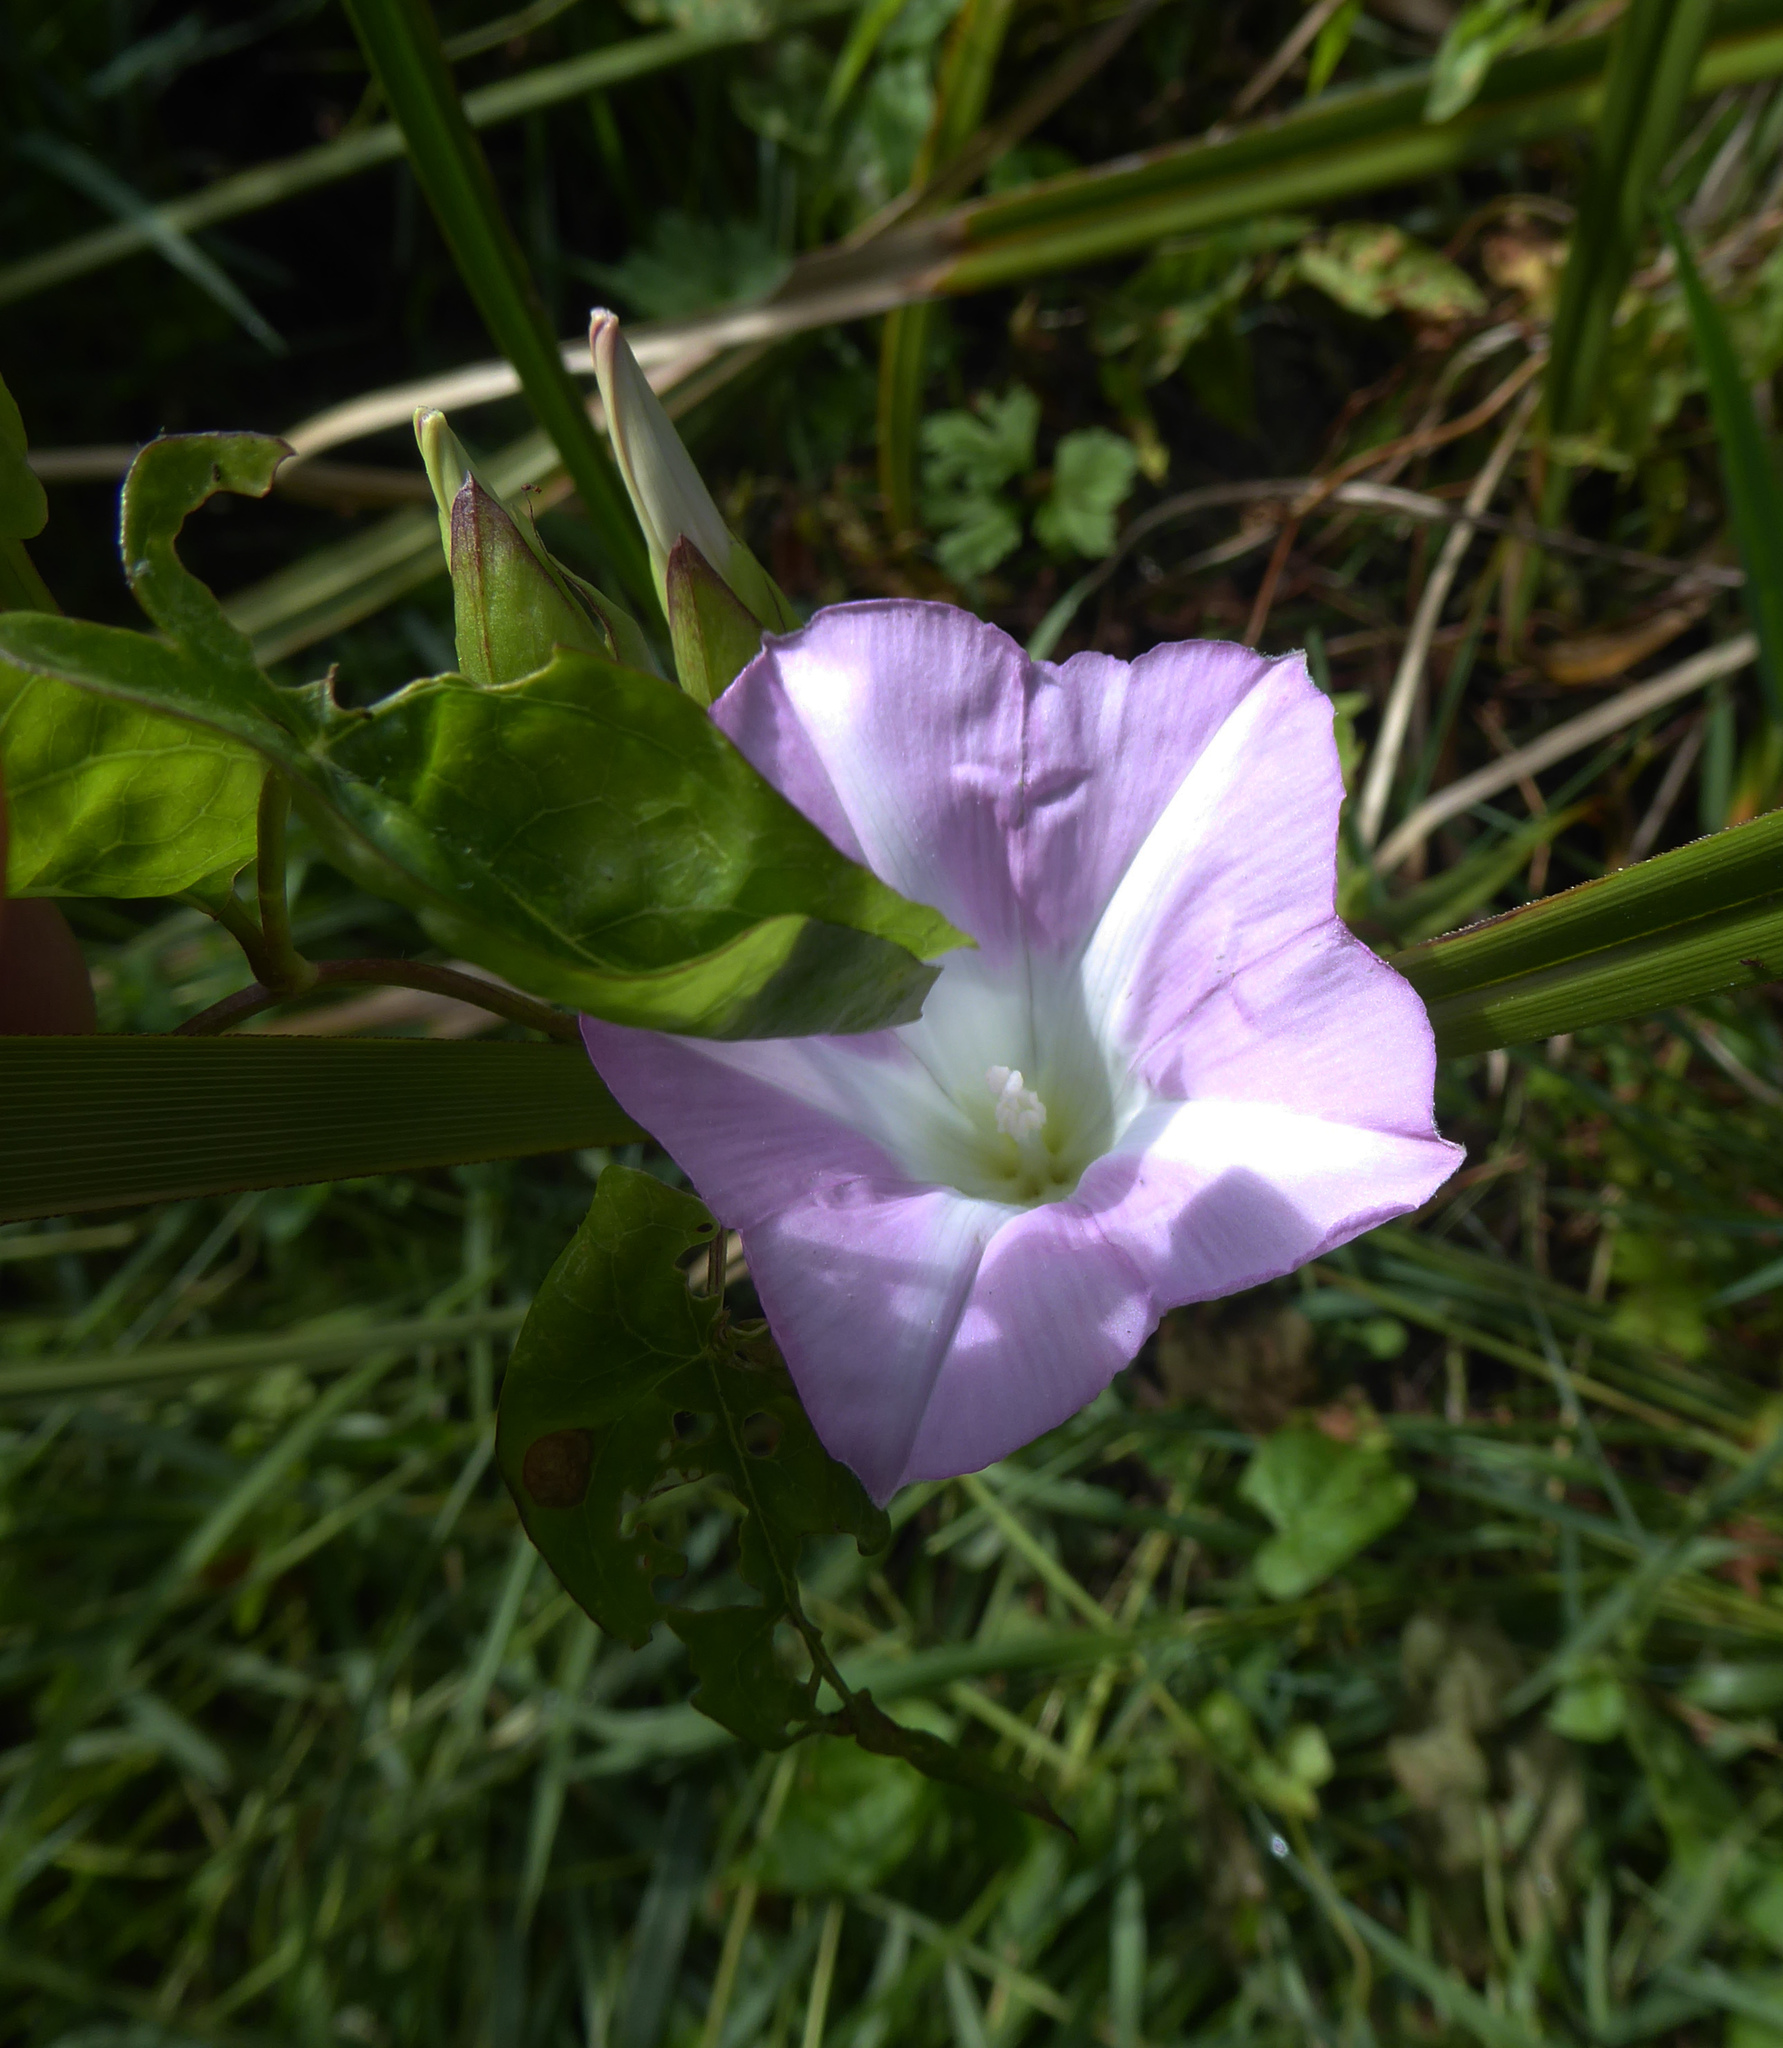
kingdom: Plantae
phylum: Tracheophyta
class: Magnoliopsida
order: Solanales
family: Convolvulaceae
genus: Calystegia
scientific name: Calystegia sepium
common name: Hedge bindweed
